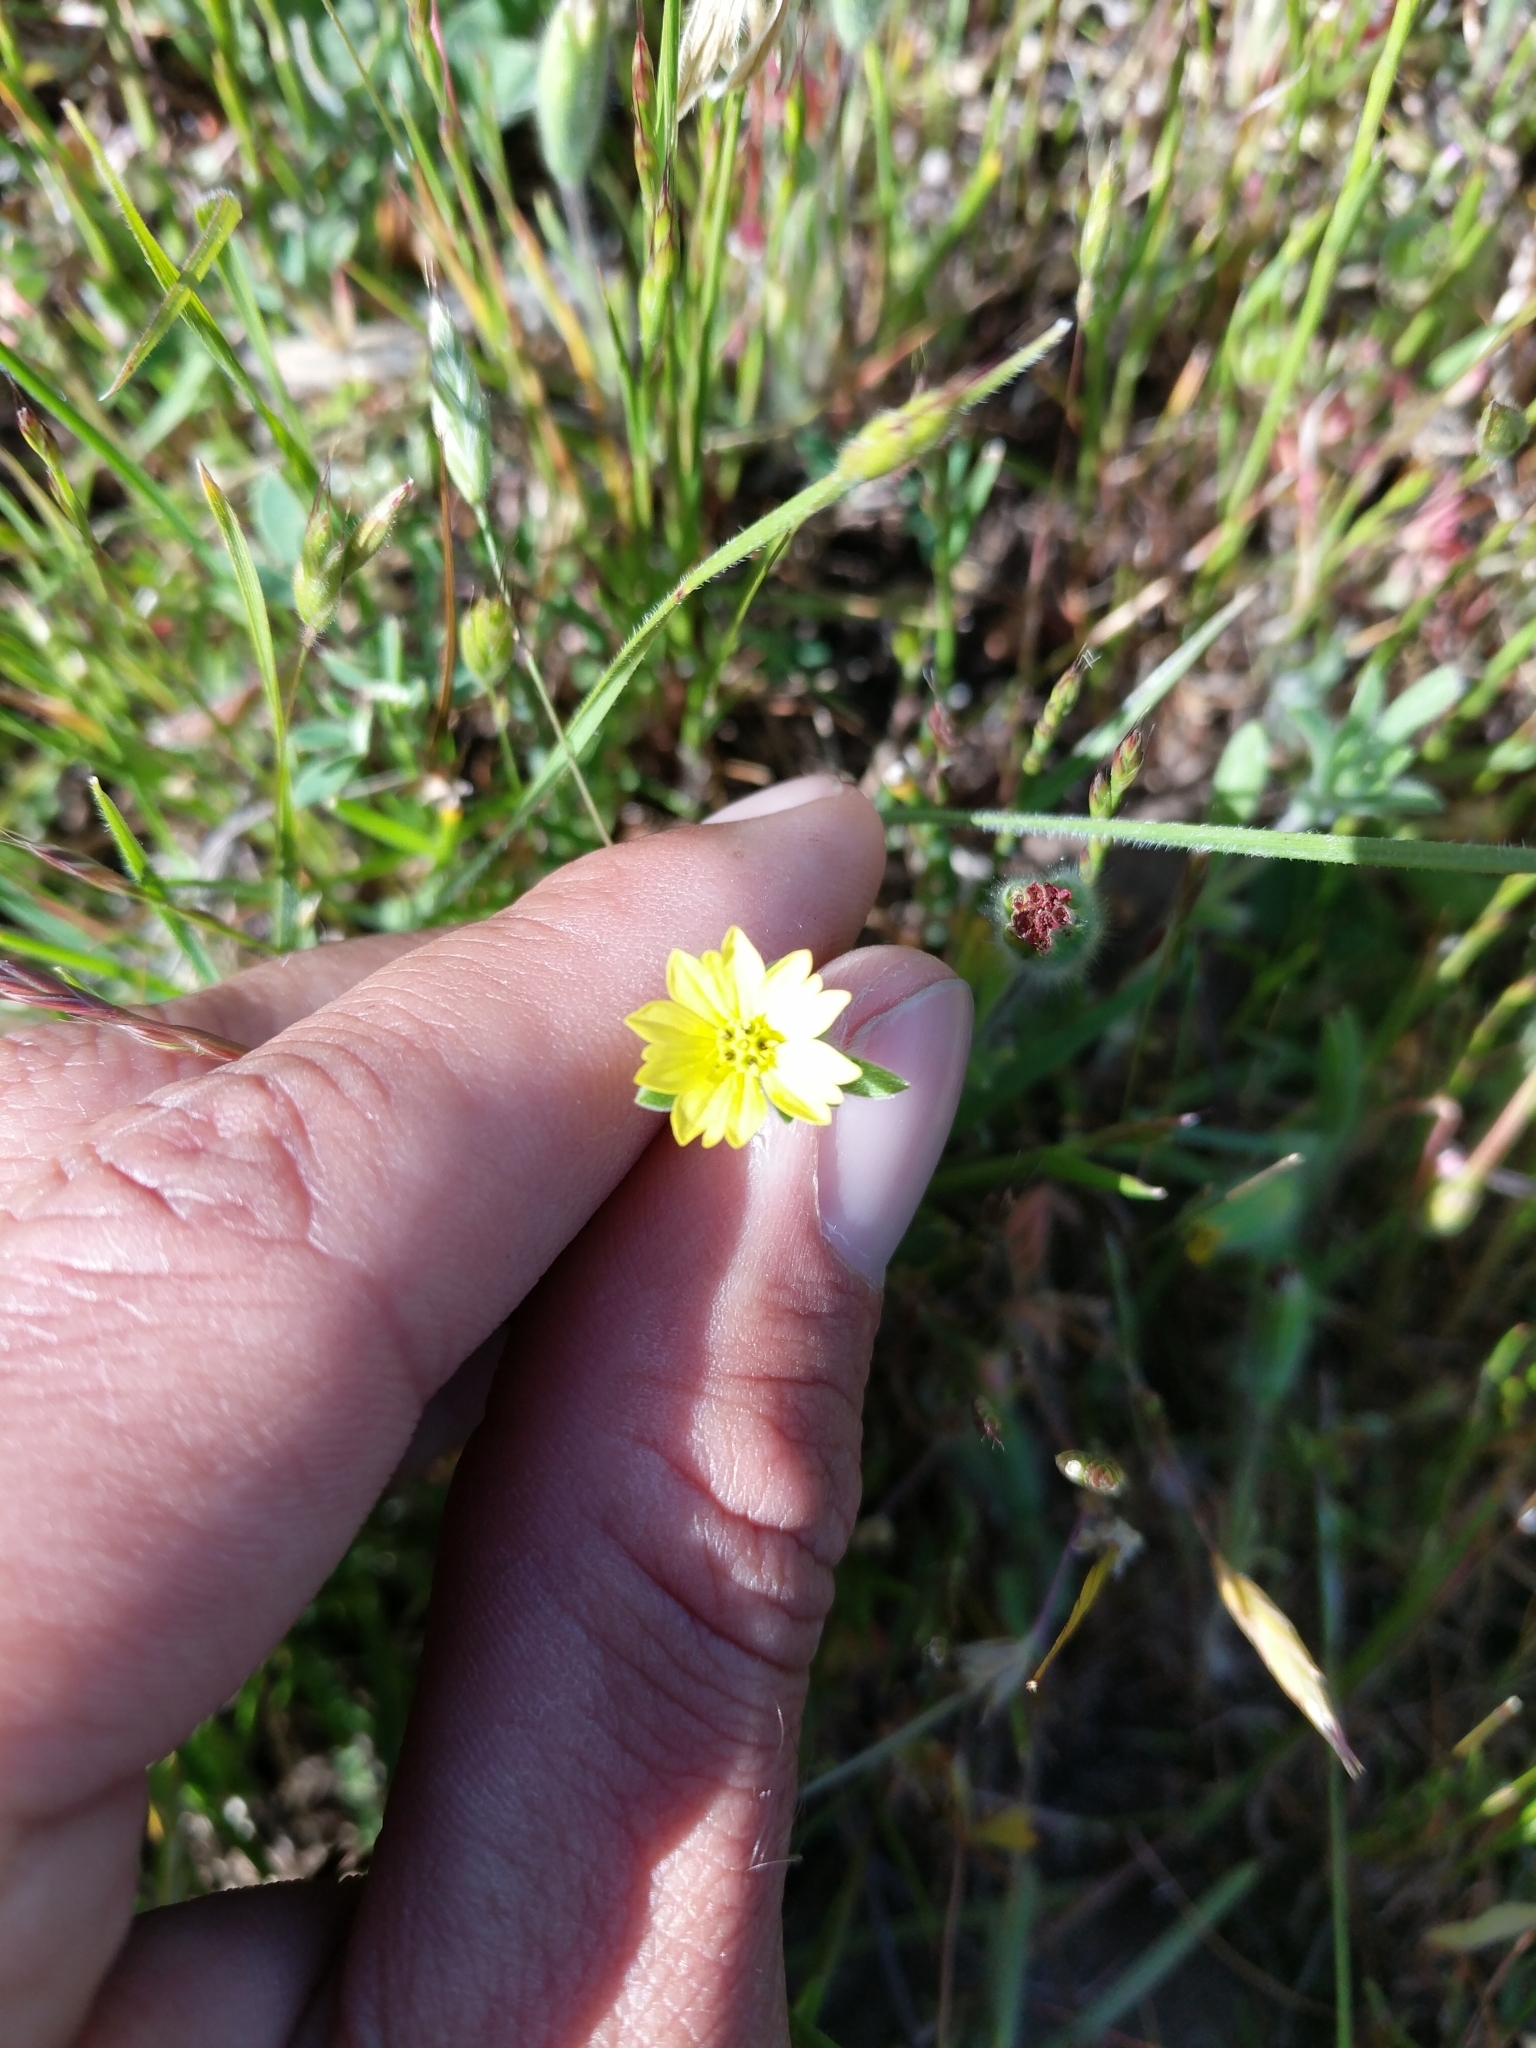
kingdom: Plantae
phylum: Tracheophyta
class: Magnoliopsida
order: Asterales
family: Asteraceae
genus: Lagophylla
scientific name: Lagophylla ramosissima
